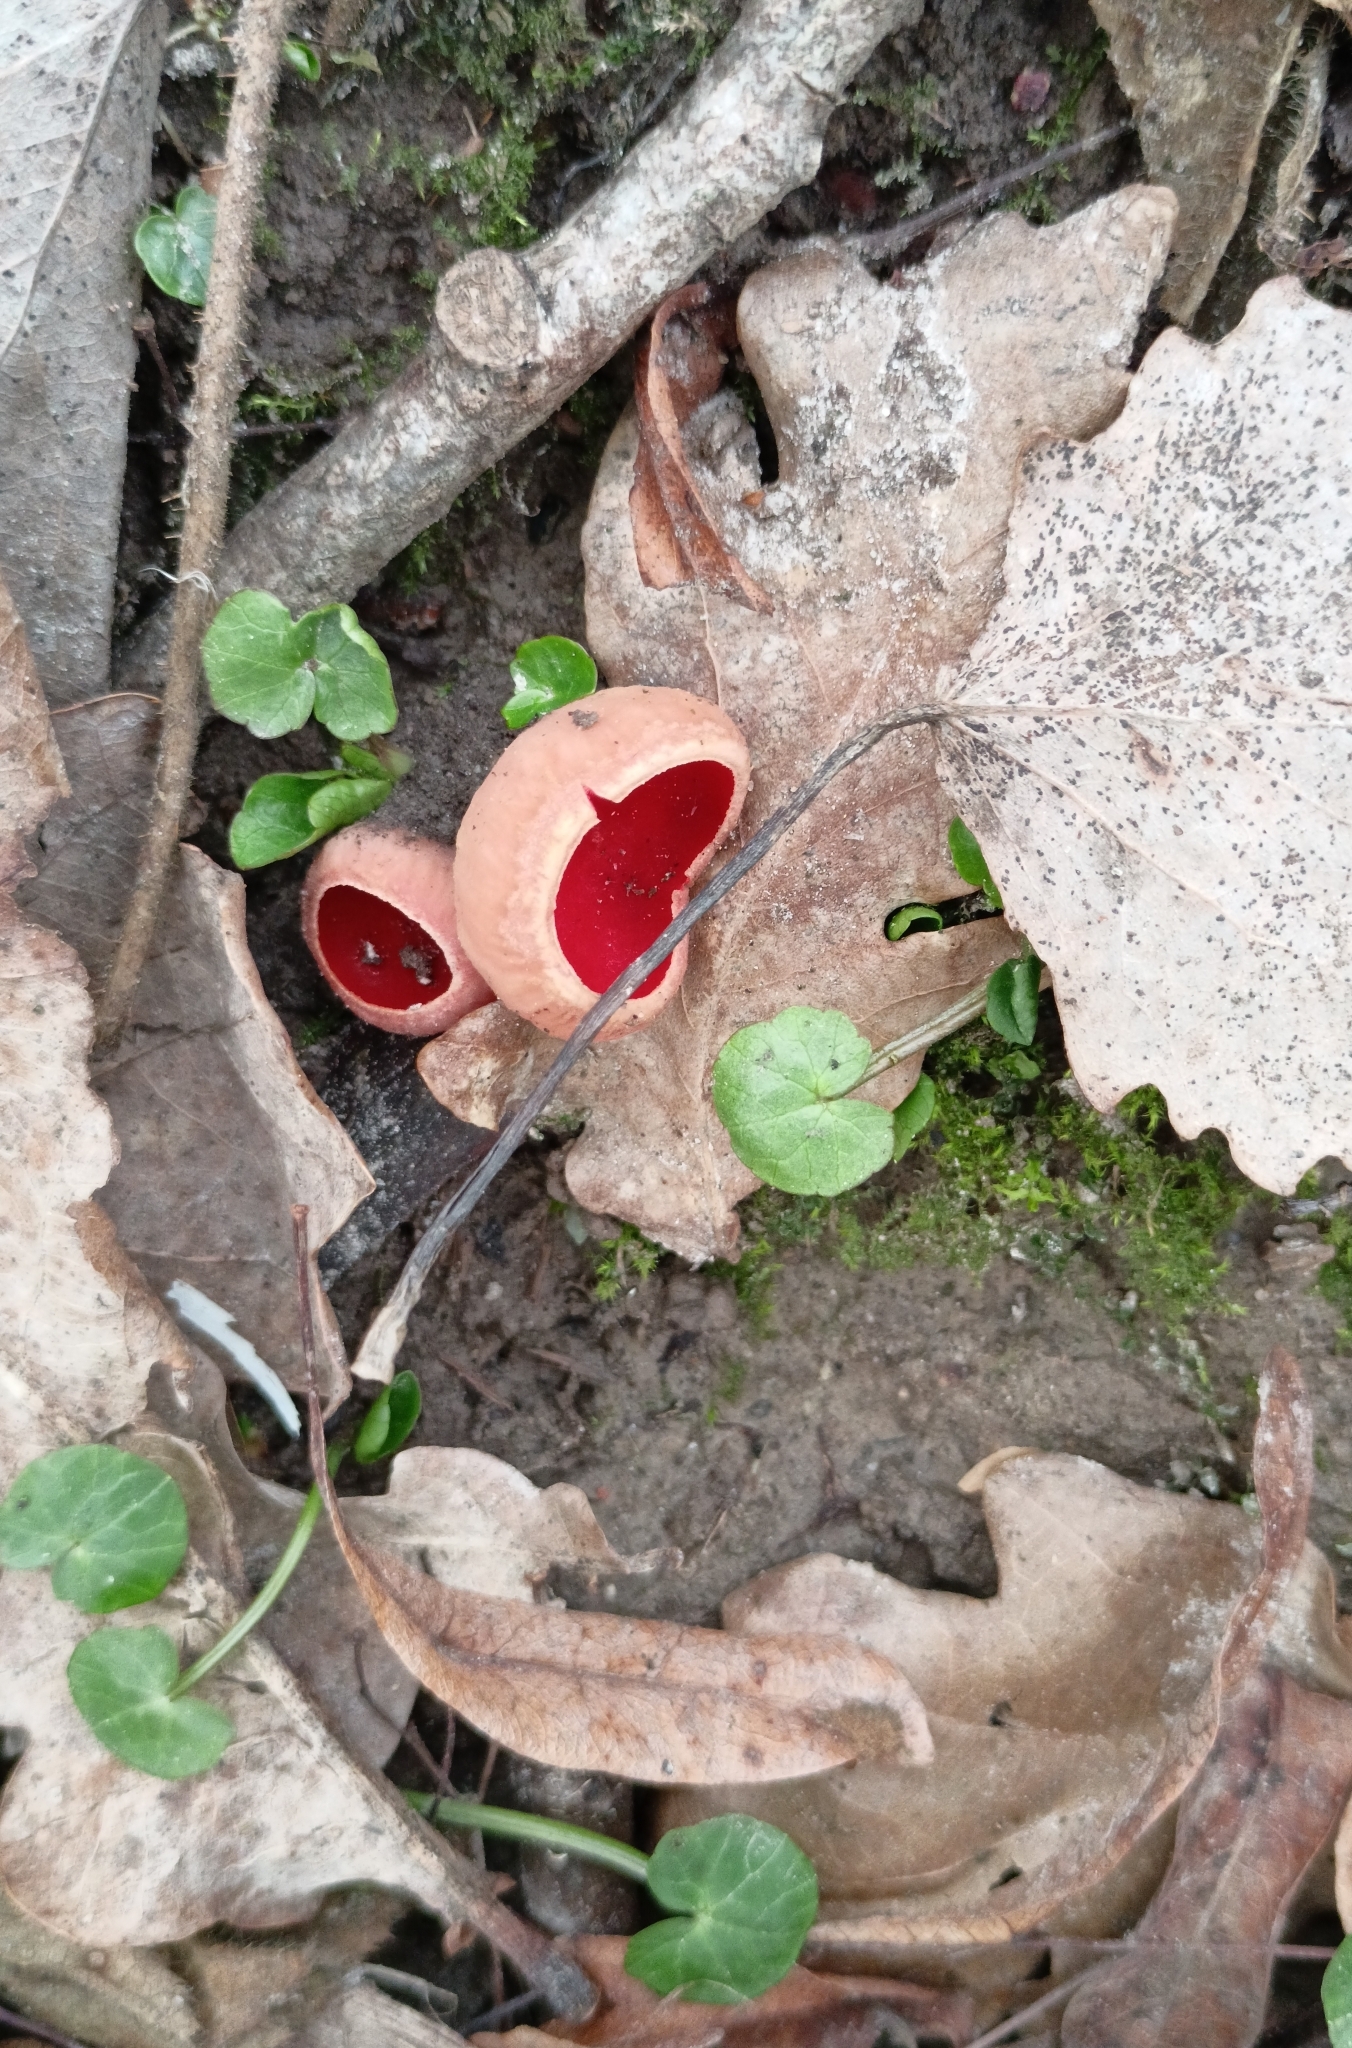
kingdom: Fungi
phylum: Ascomycota
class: Pezizomycetes
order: Pezizales
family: Sarcoscyphaceae
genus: Sarcoscypha
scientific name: Sarcoscypha
